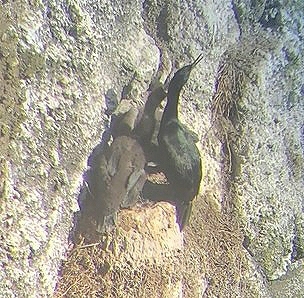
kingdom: Animalia
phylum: Chordata
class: Aves
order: Suliformes
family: Phalacrocoracidae
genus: Phalacrocorax
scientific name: Phalacrocorax pelagicus
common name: Pelagic cormorant
